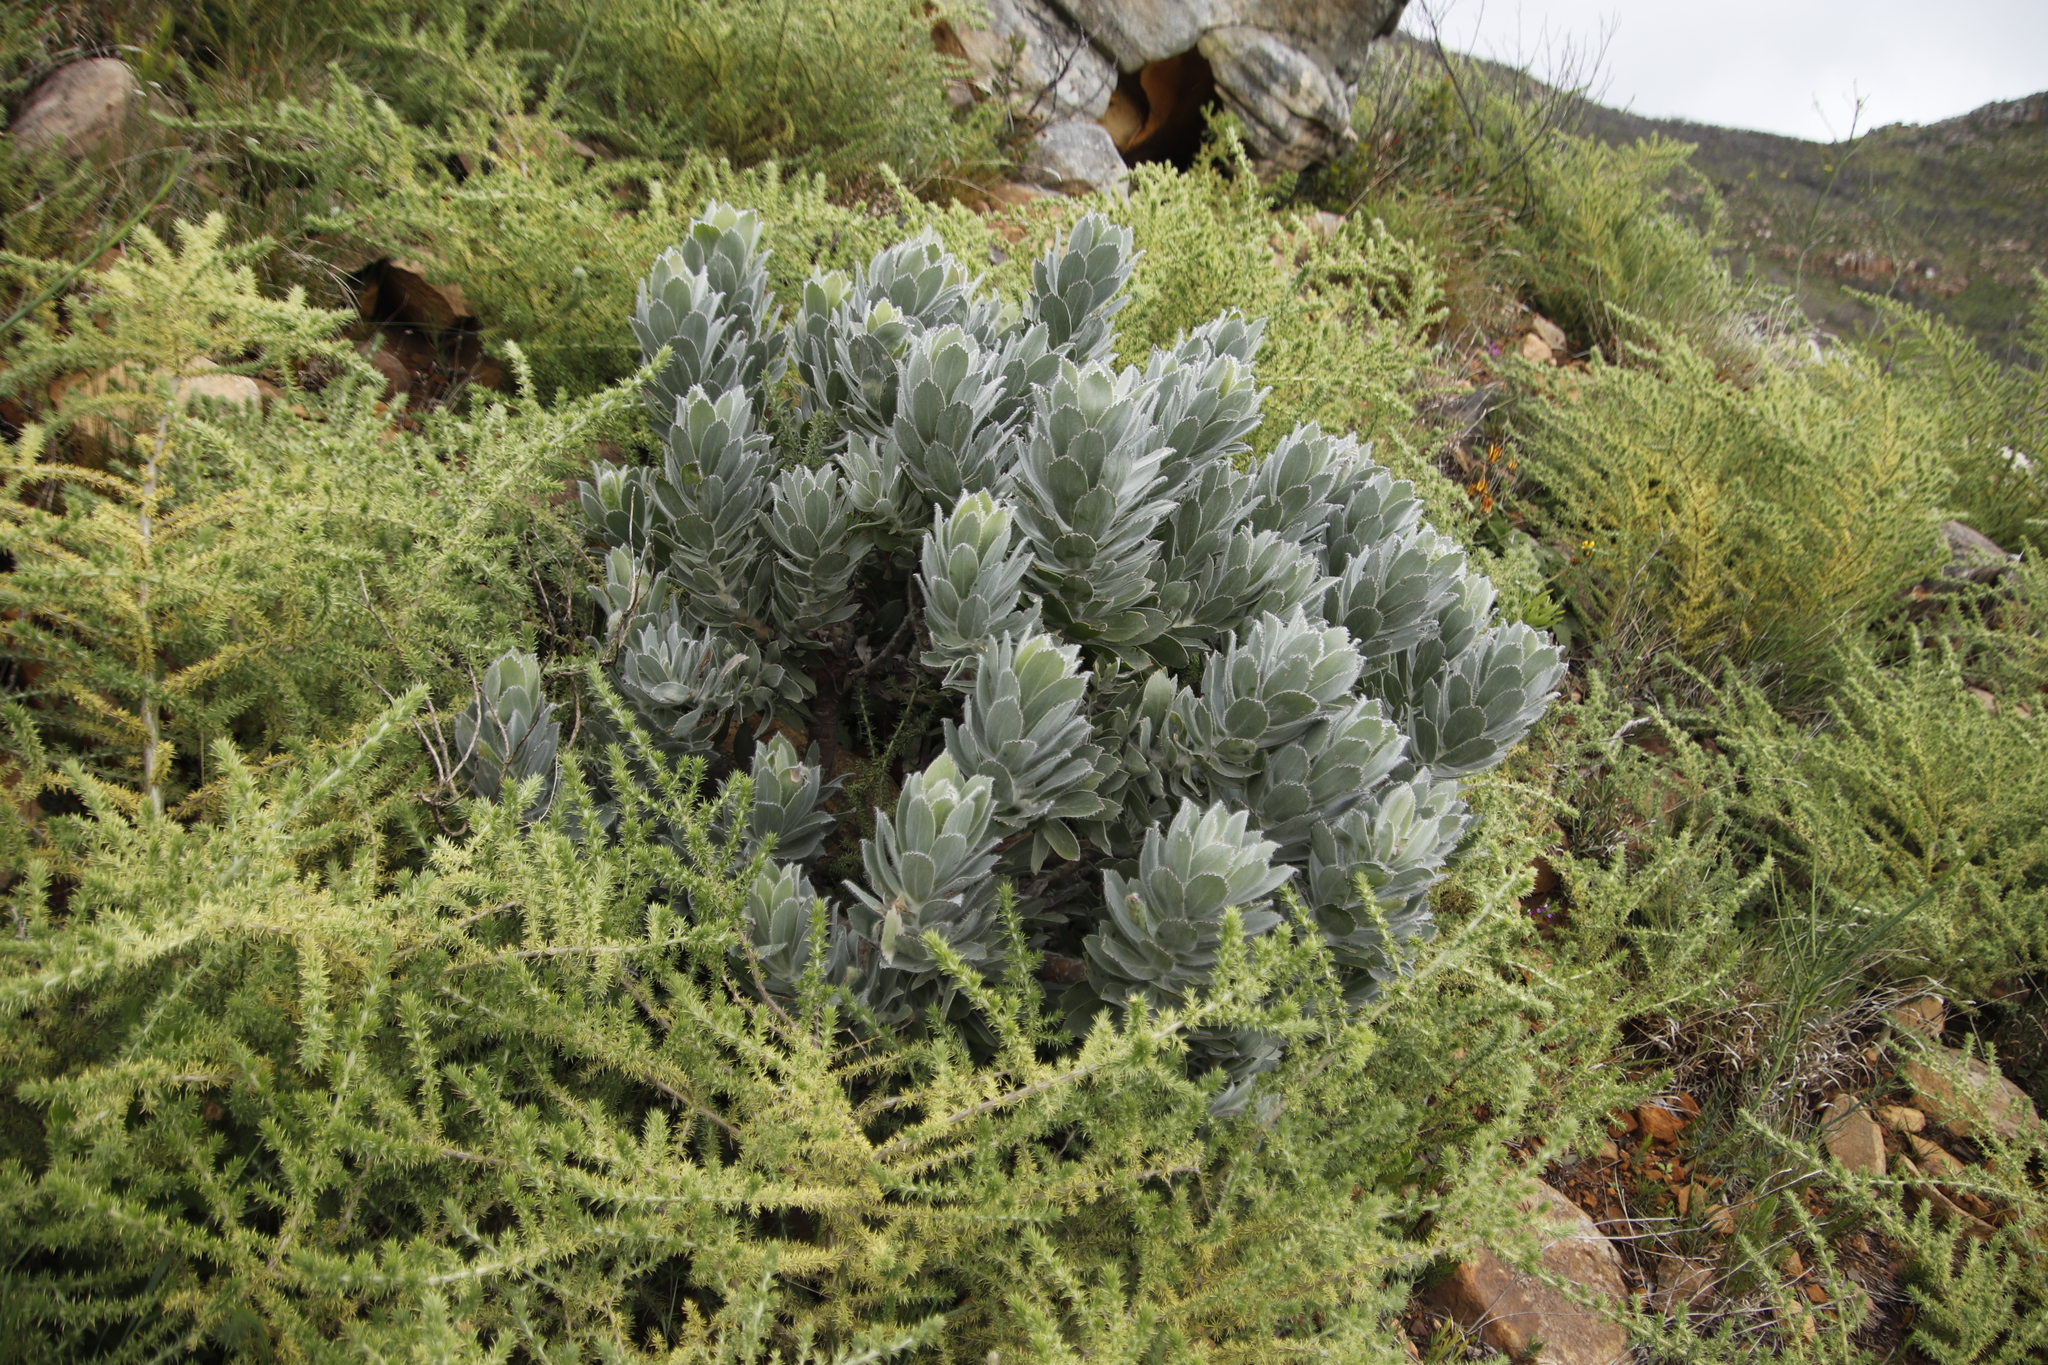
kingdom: Plantae
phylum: Tracheophyta
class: Magnoliopsida
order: Proteales
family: Proteaceae
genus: Leucospermum
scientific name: Leucospermum conocarpodendron
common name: Tree pincushion
